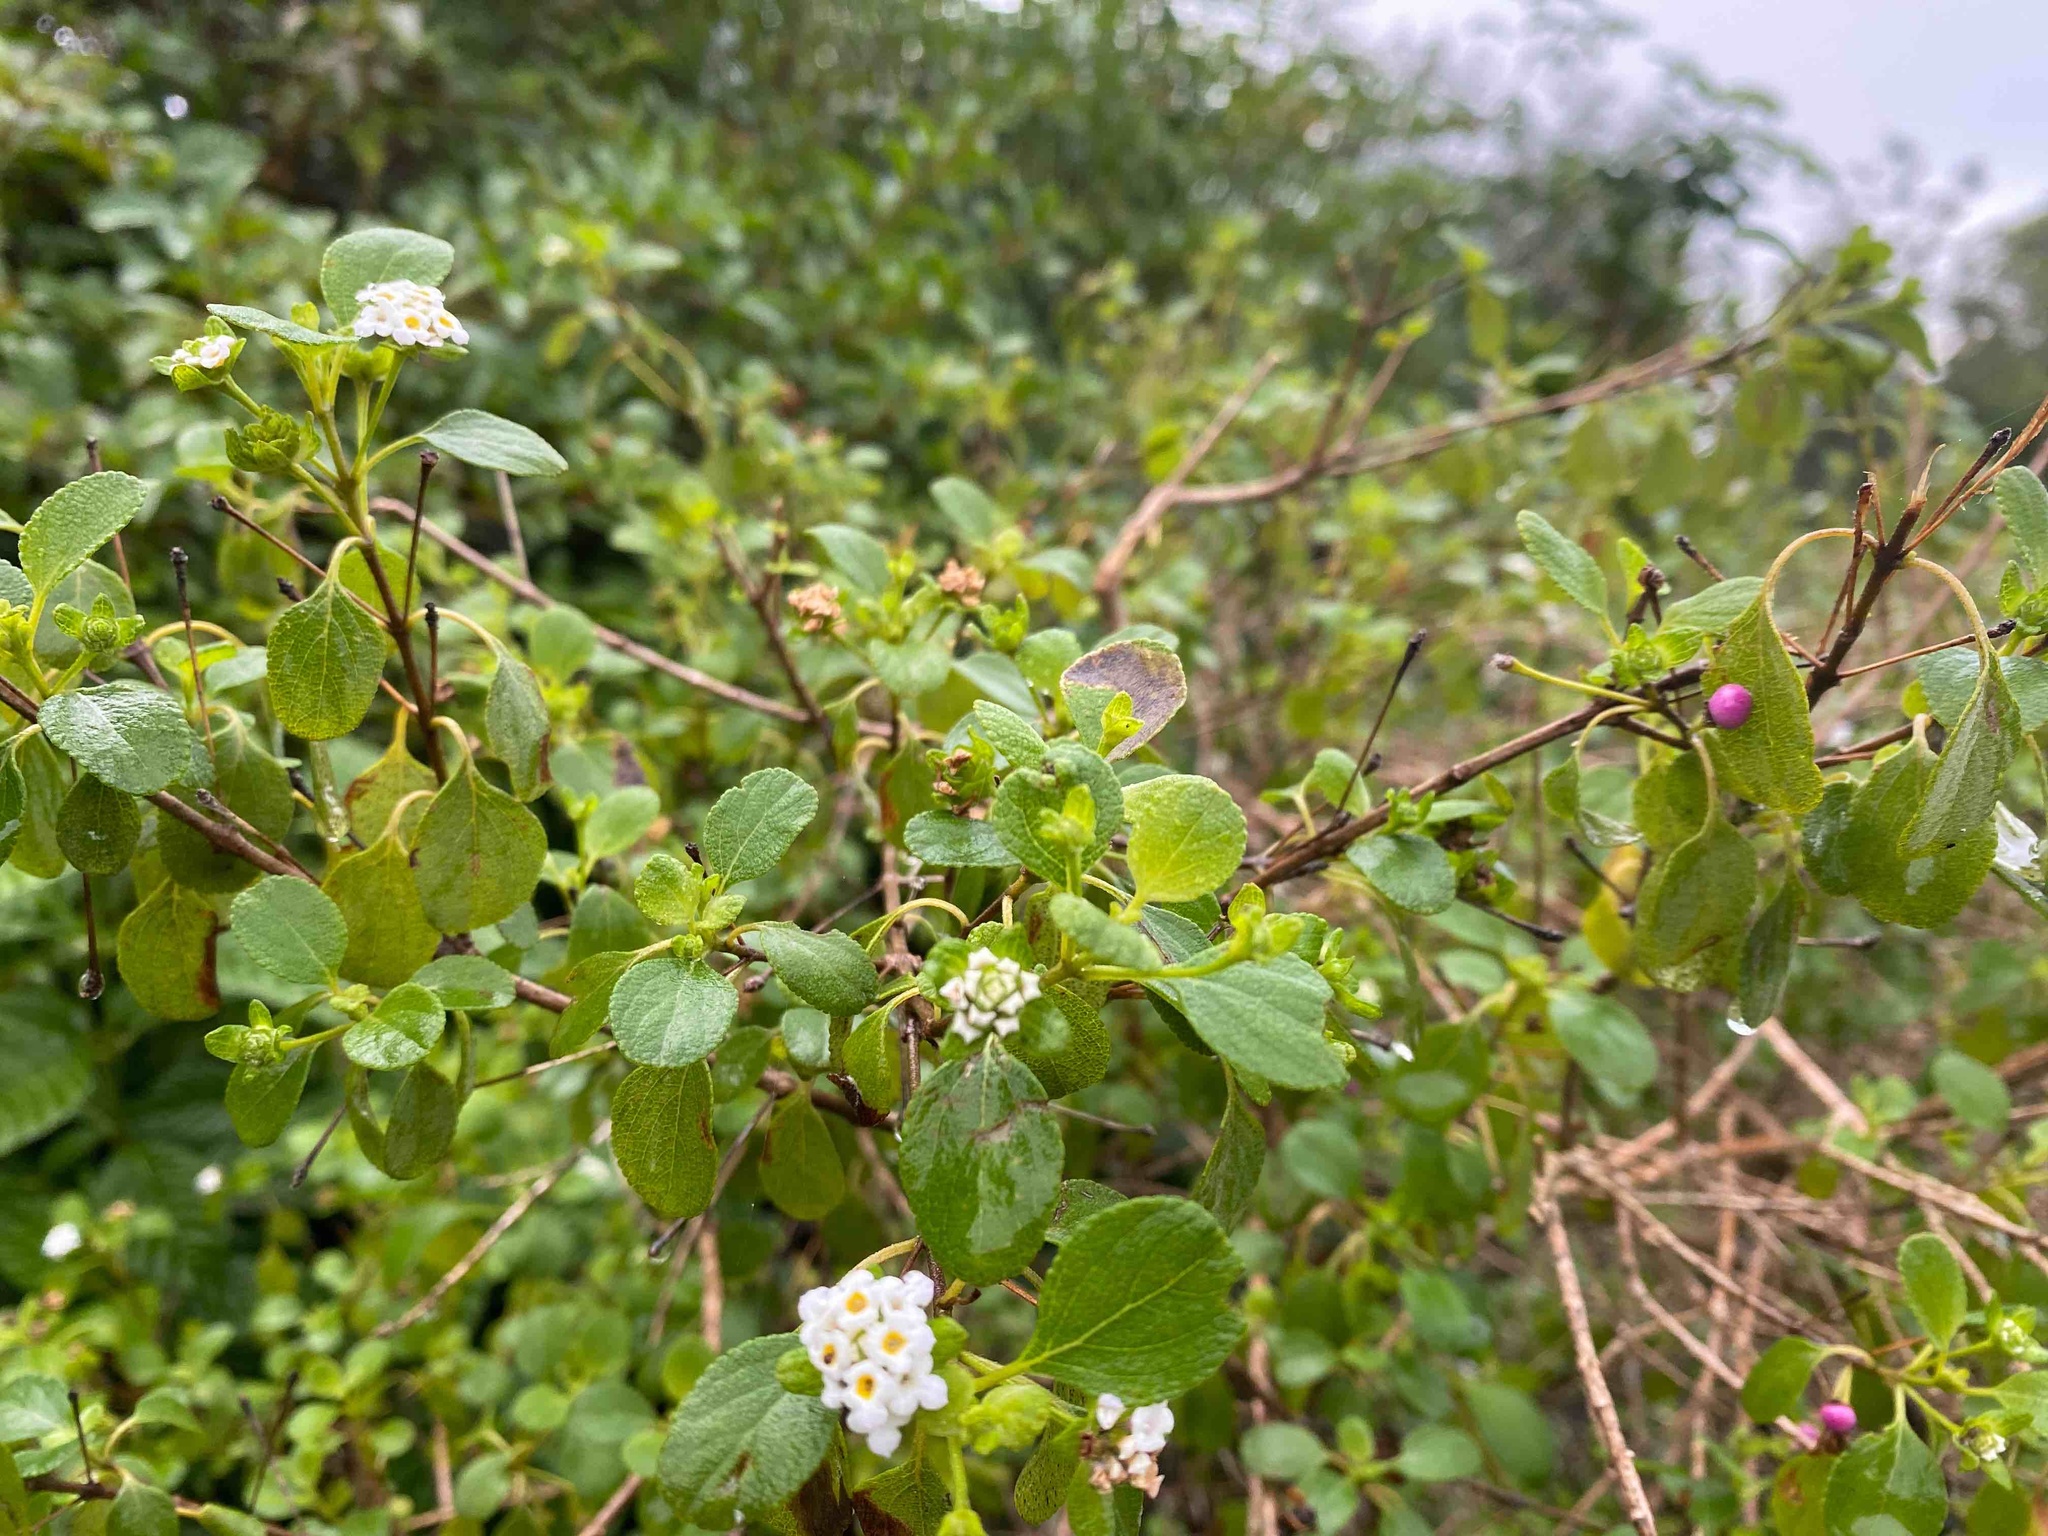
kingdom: Plantae
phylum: Tracheophyta
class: Magnoliopsida
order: Lamiales
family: Verbenaceae
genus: Lantana
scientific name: Lantana involucrata
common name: Black sage
